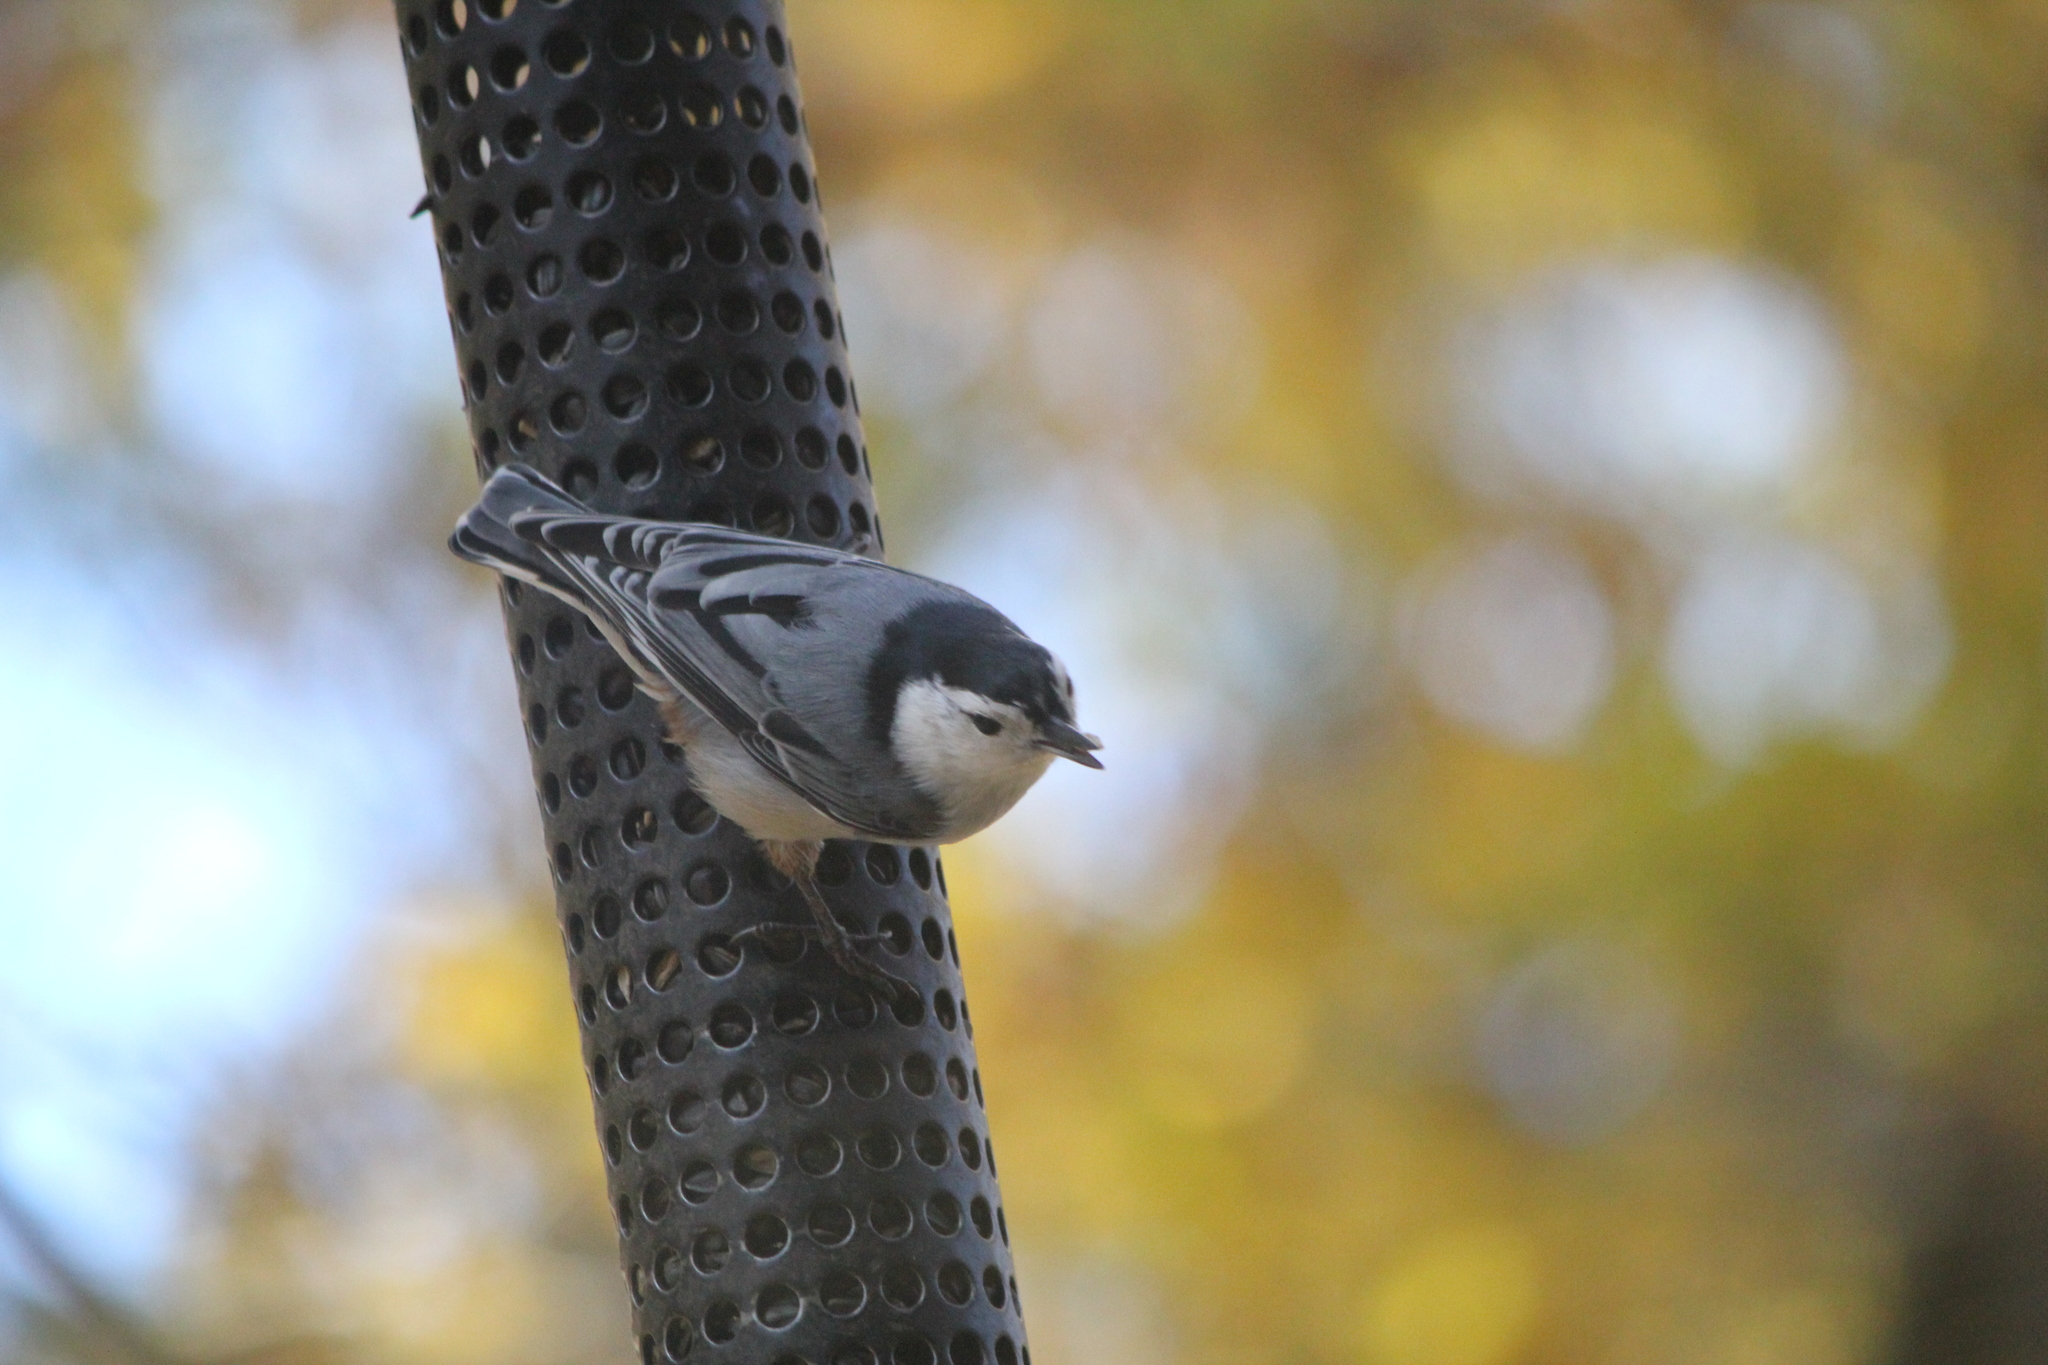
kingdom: Animalia
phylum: Chordata
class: Aves
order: Passeriformes
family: Sittidae
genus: Sitta
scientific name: Sitta carolinensis
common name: White-breasted nuthatch
